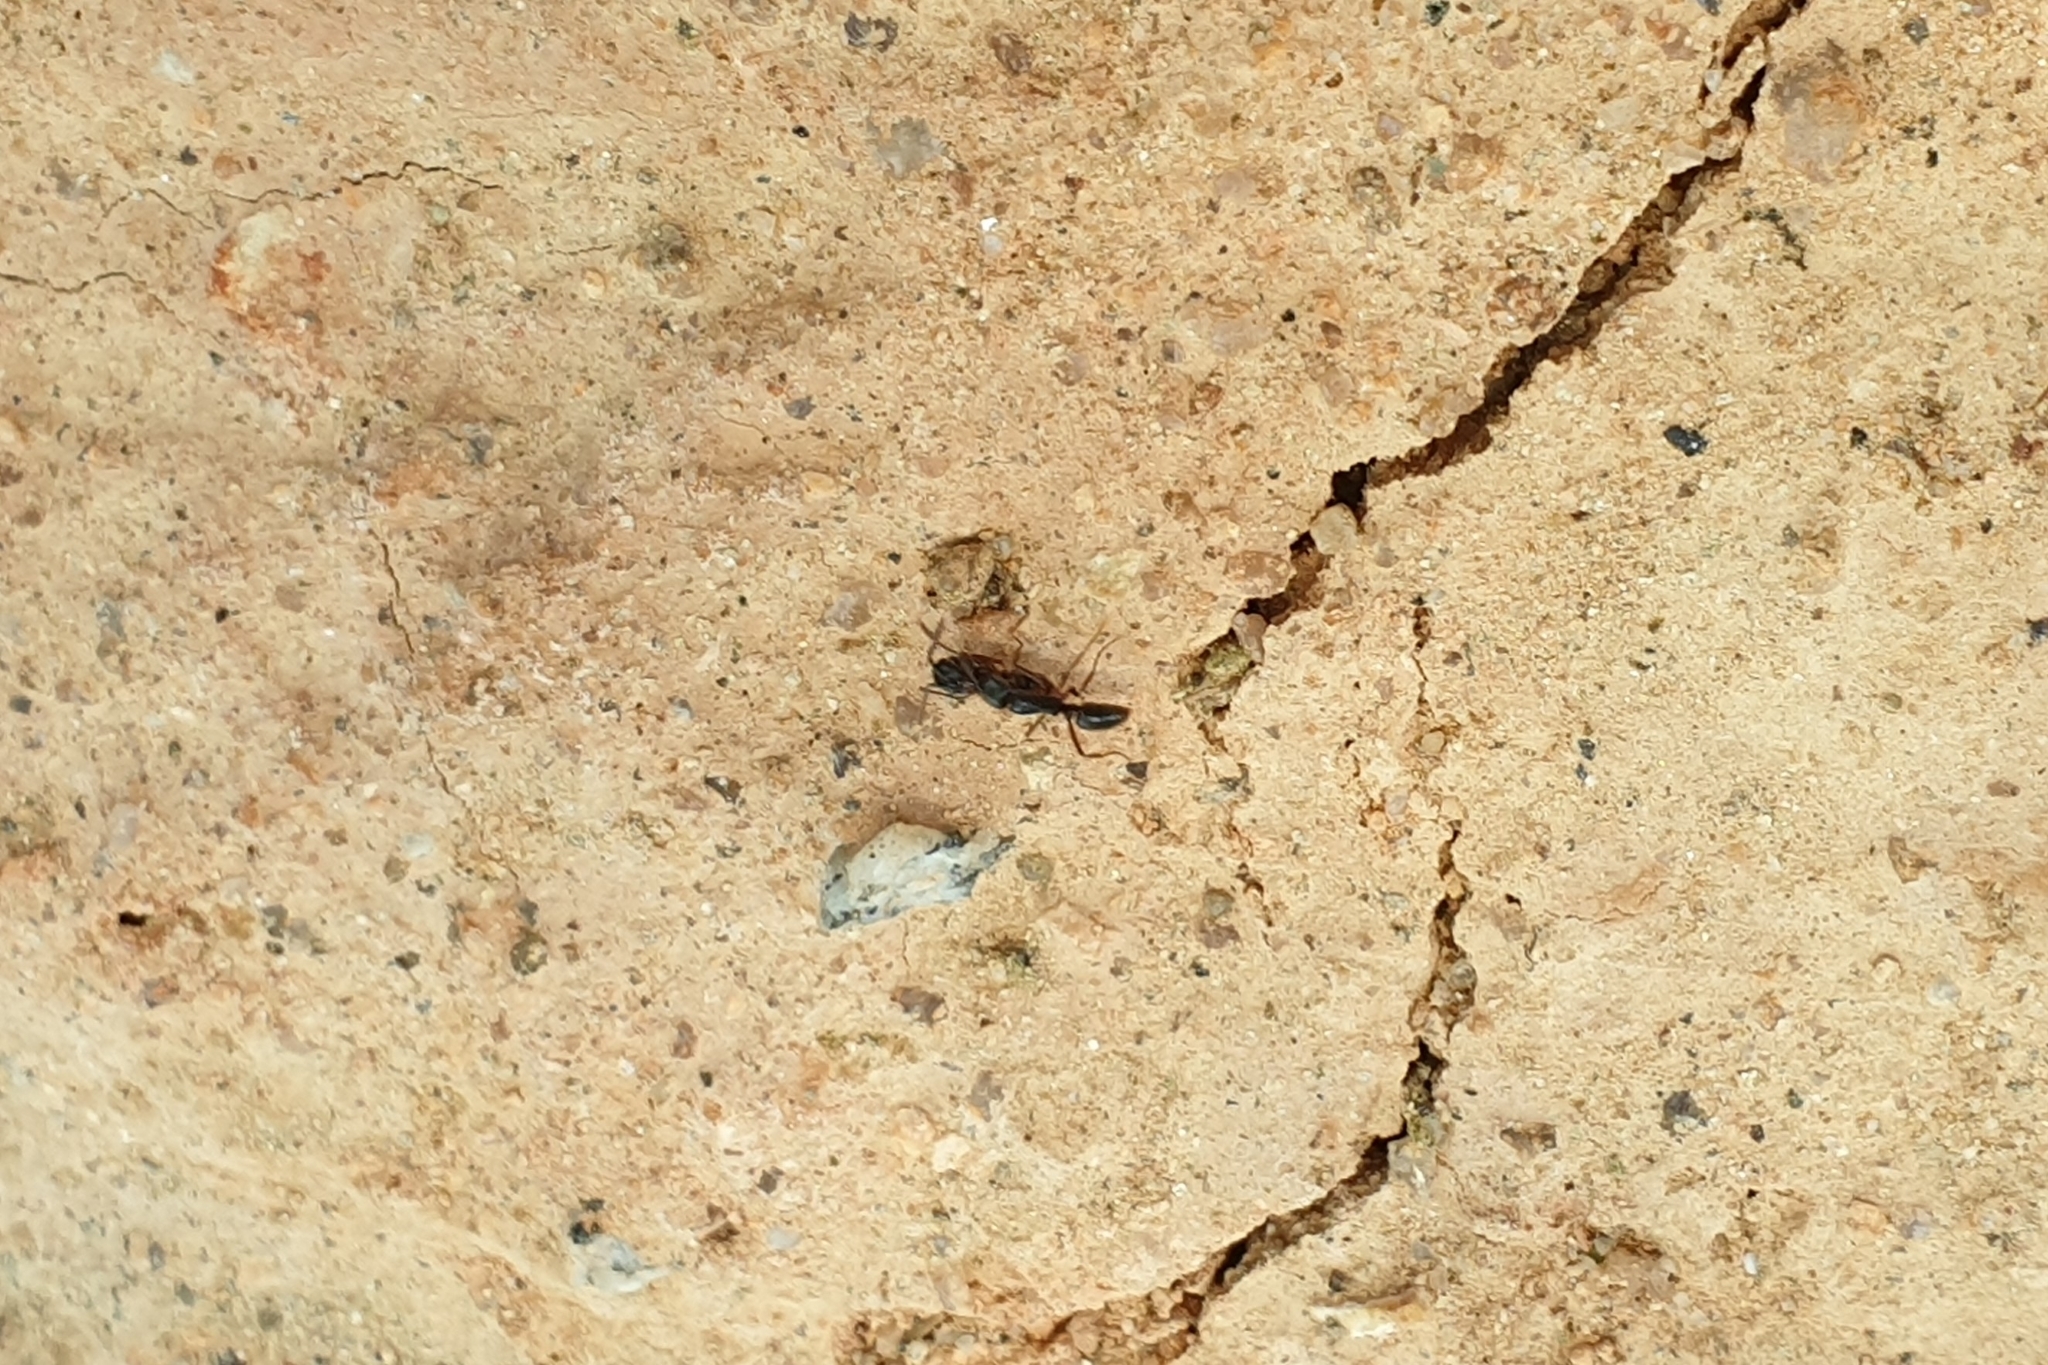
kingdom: Animalia
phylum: Arthropoda
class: Insecta
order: Hymenoptera
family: Formicidae
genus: Pachycondyla
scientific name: Pachycondyla chinensis
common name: Asian needle ant
